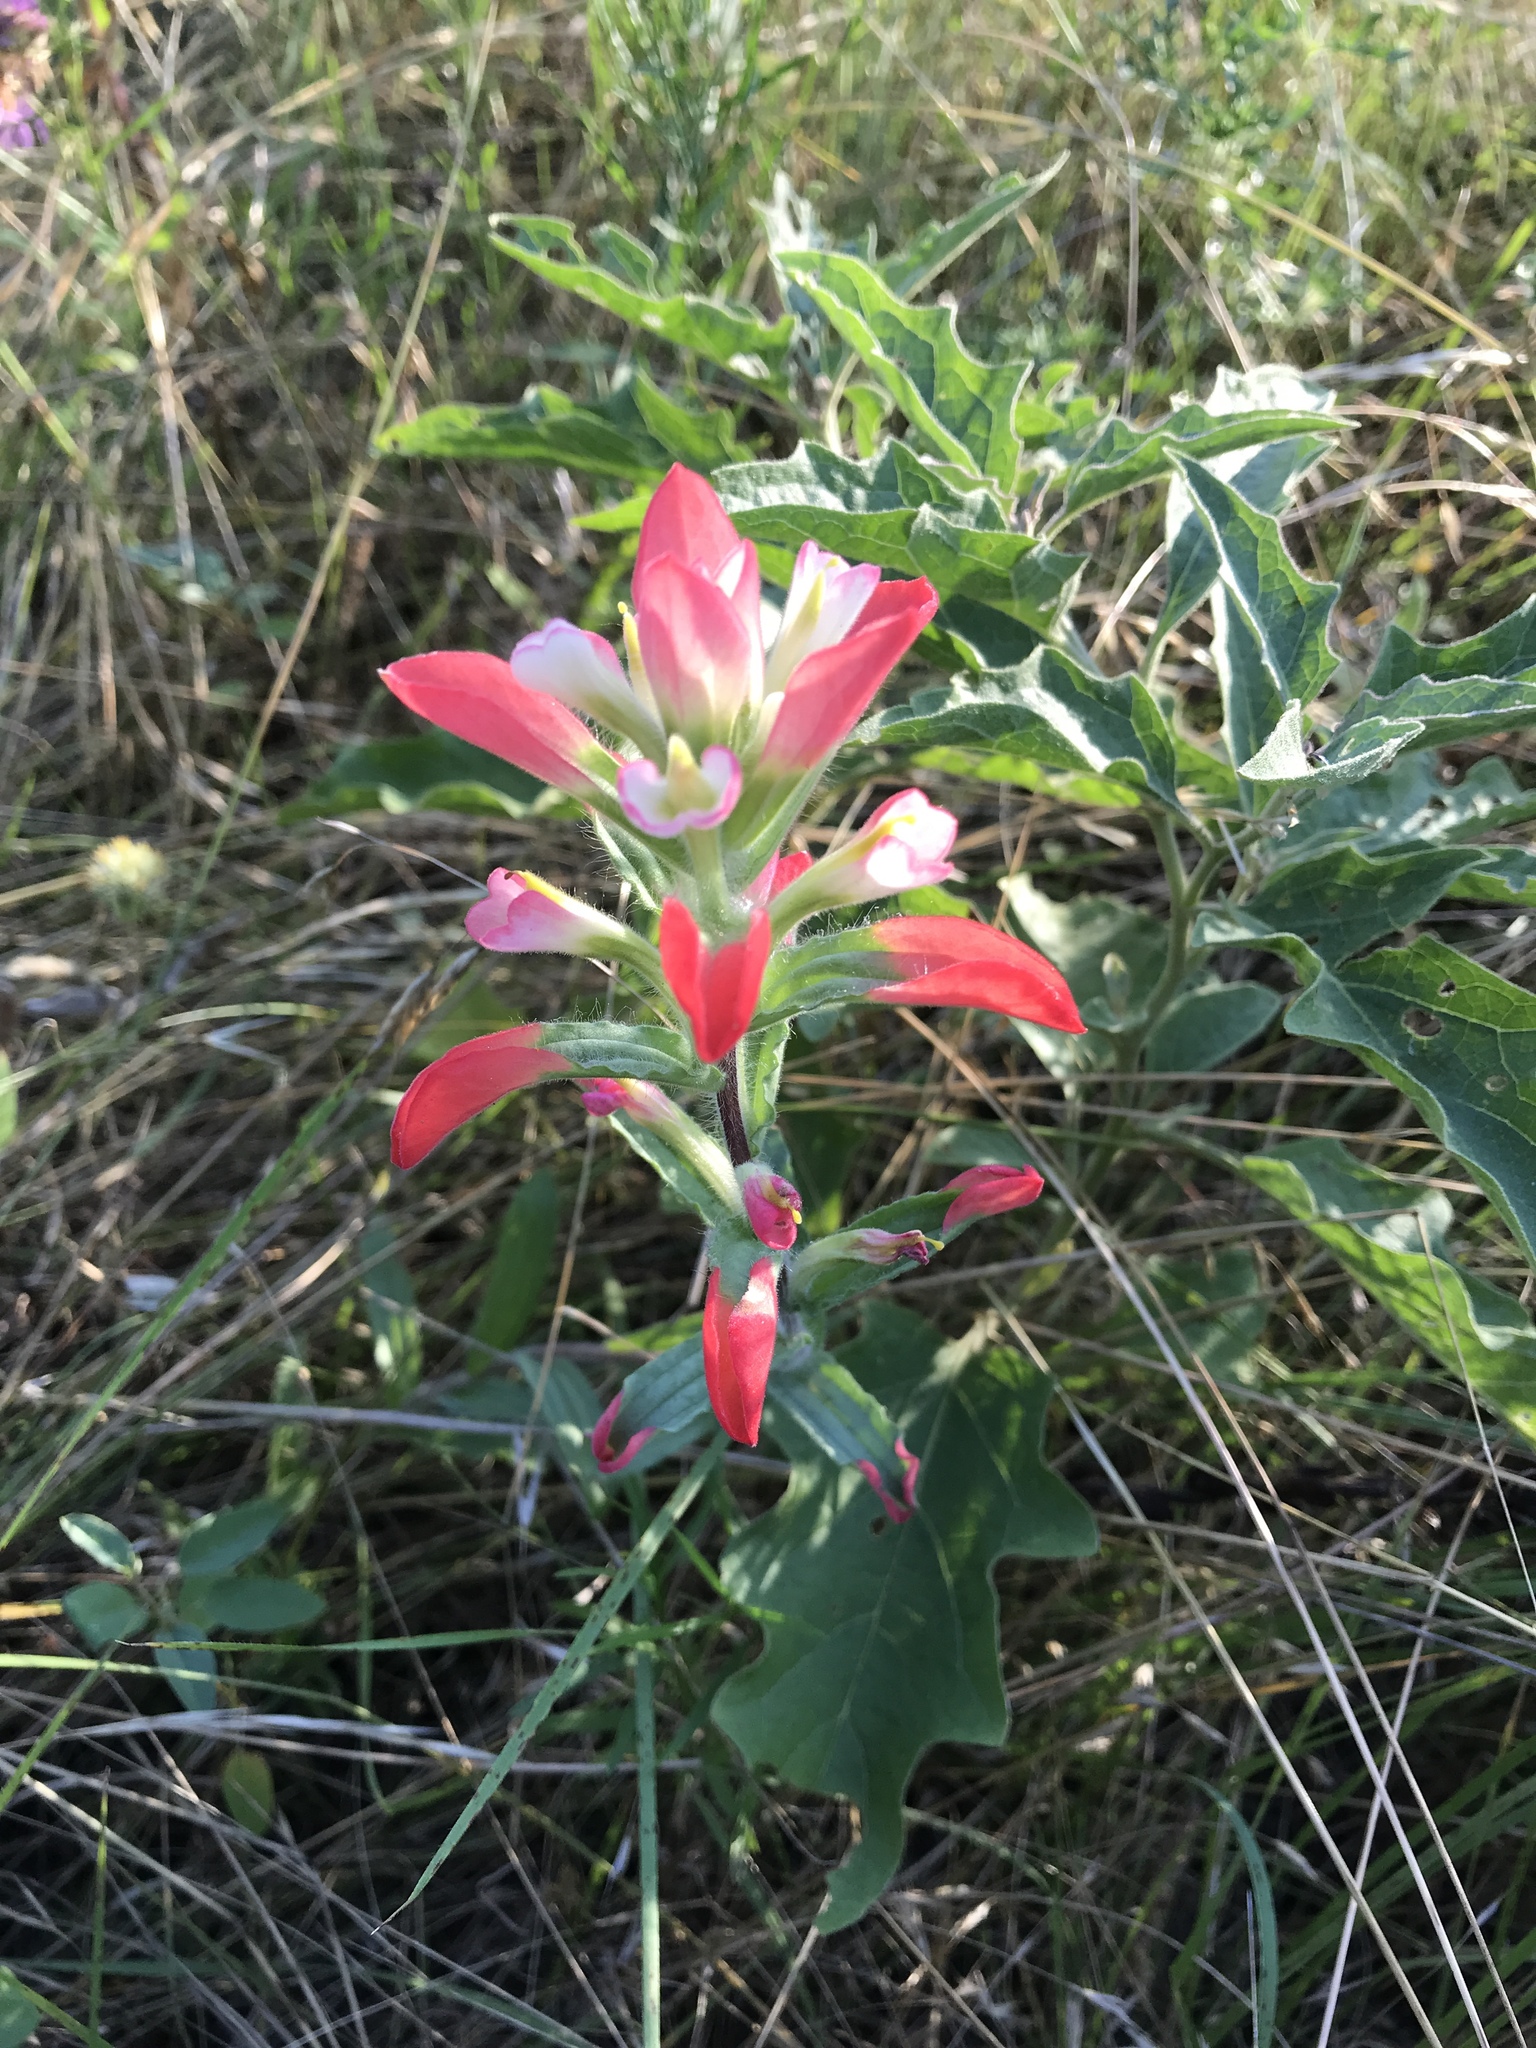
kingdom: Plantae
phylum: Tracheophyta
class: Magnoliopsida
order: Lamiales
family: Orobanchaceae
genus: Castilleja
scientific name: Castilleja indivisa
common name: Texas paintbrush
